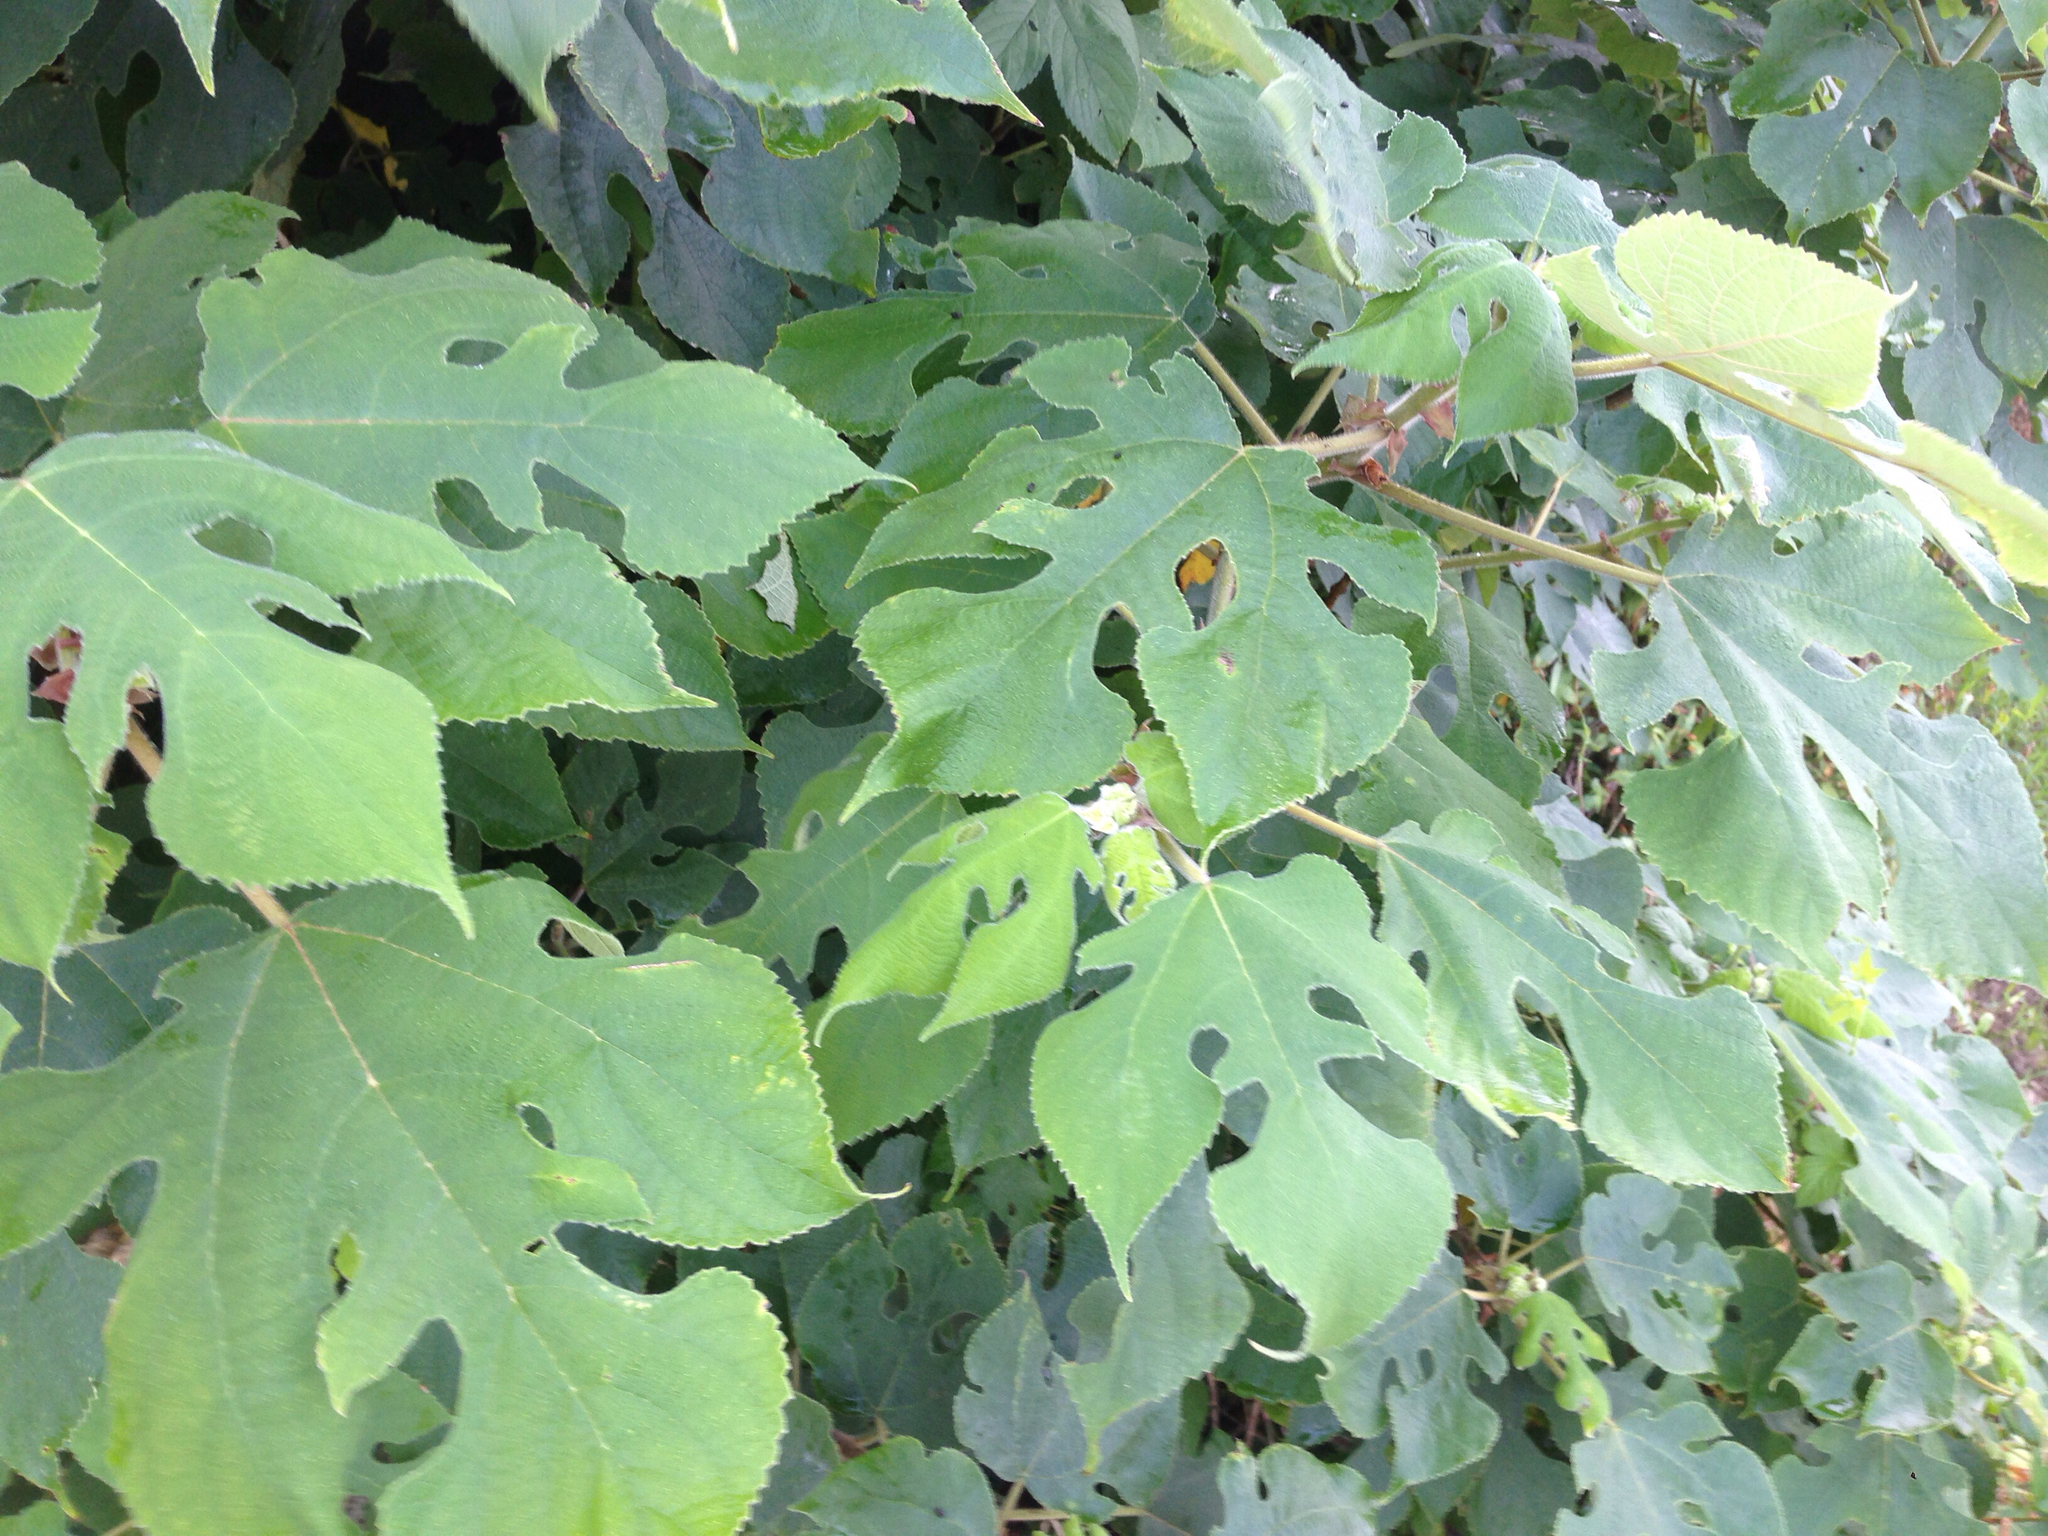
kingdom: Plantae
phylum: Tracheophyta
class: Magnoliopsida
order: Rosales
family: Moraceae
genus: Broussonetia
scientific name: Broussonetia papyrifera
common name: Paper mulberry
